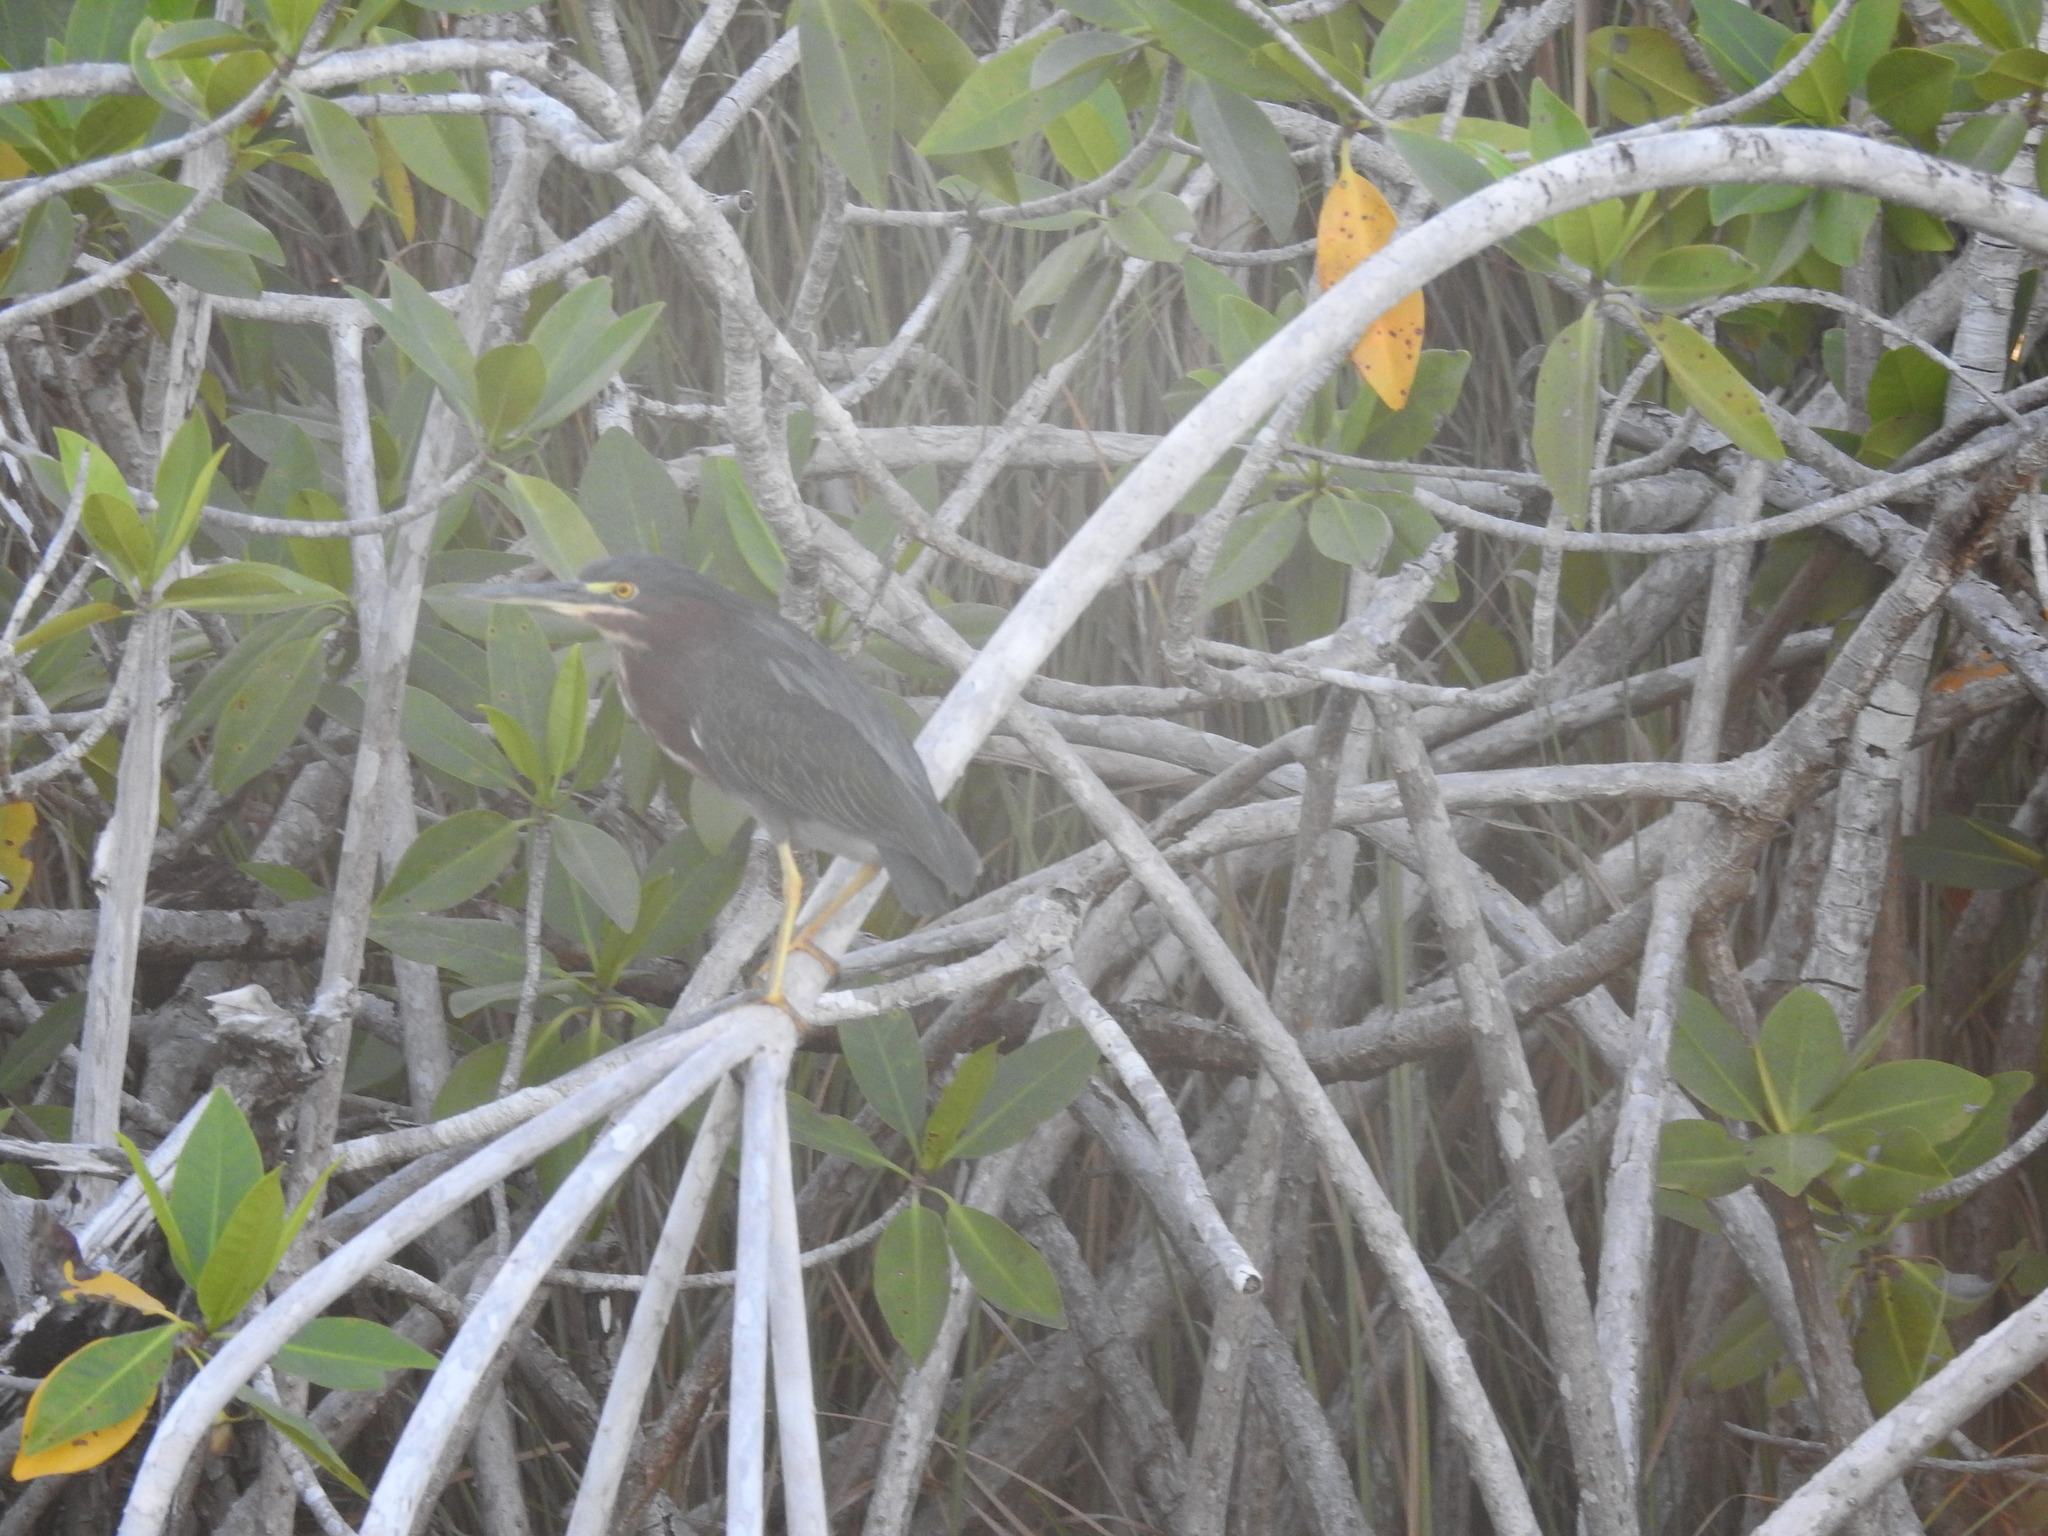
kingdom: Animalia
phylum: Chordata
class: Aves
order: Pelecaniformes
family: Ardeidae
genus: Butorides
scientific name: Butorides virescens
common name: Green heron
